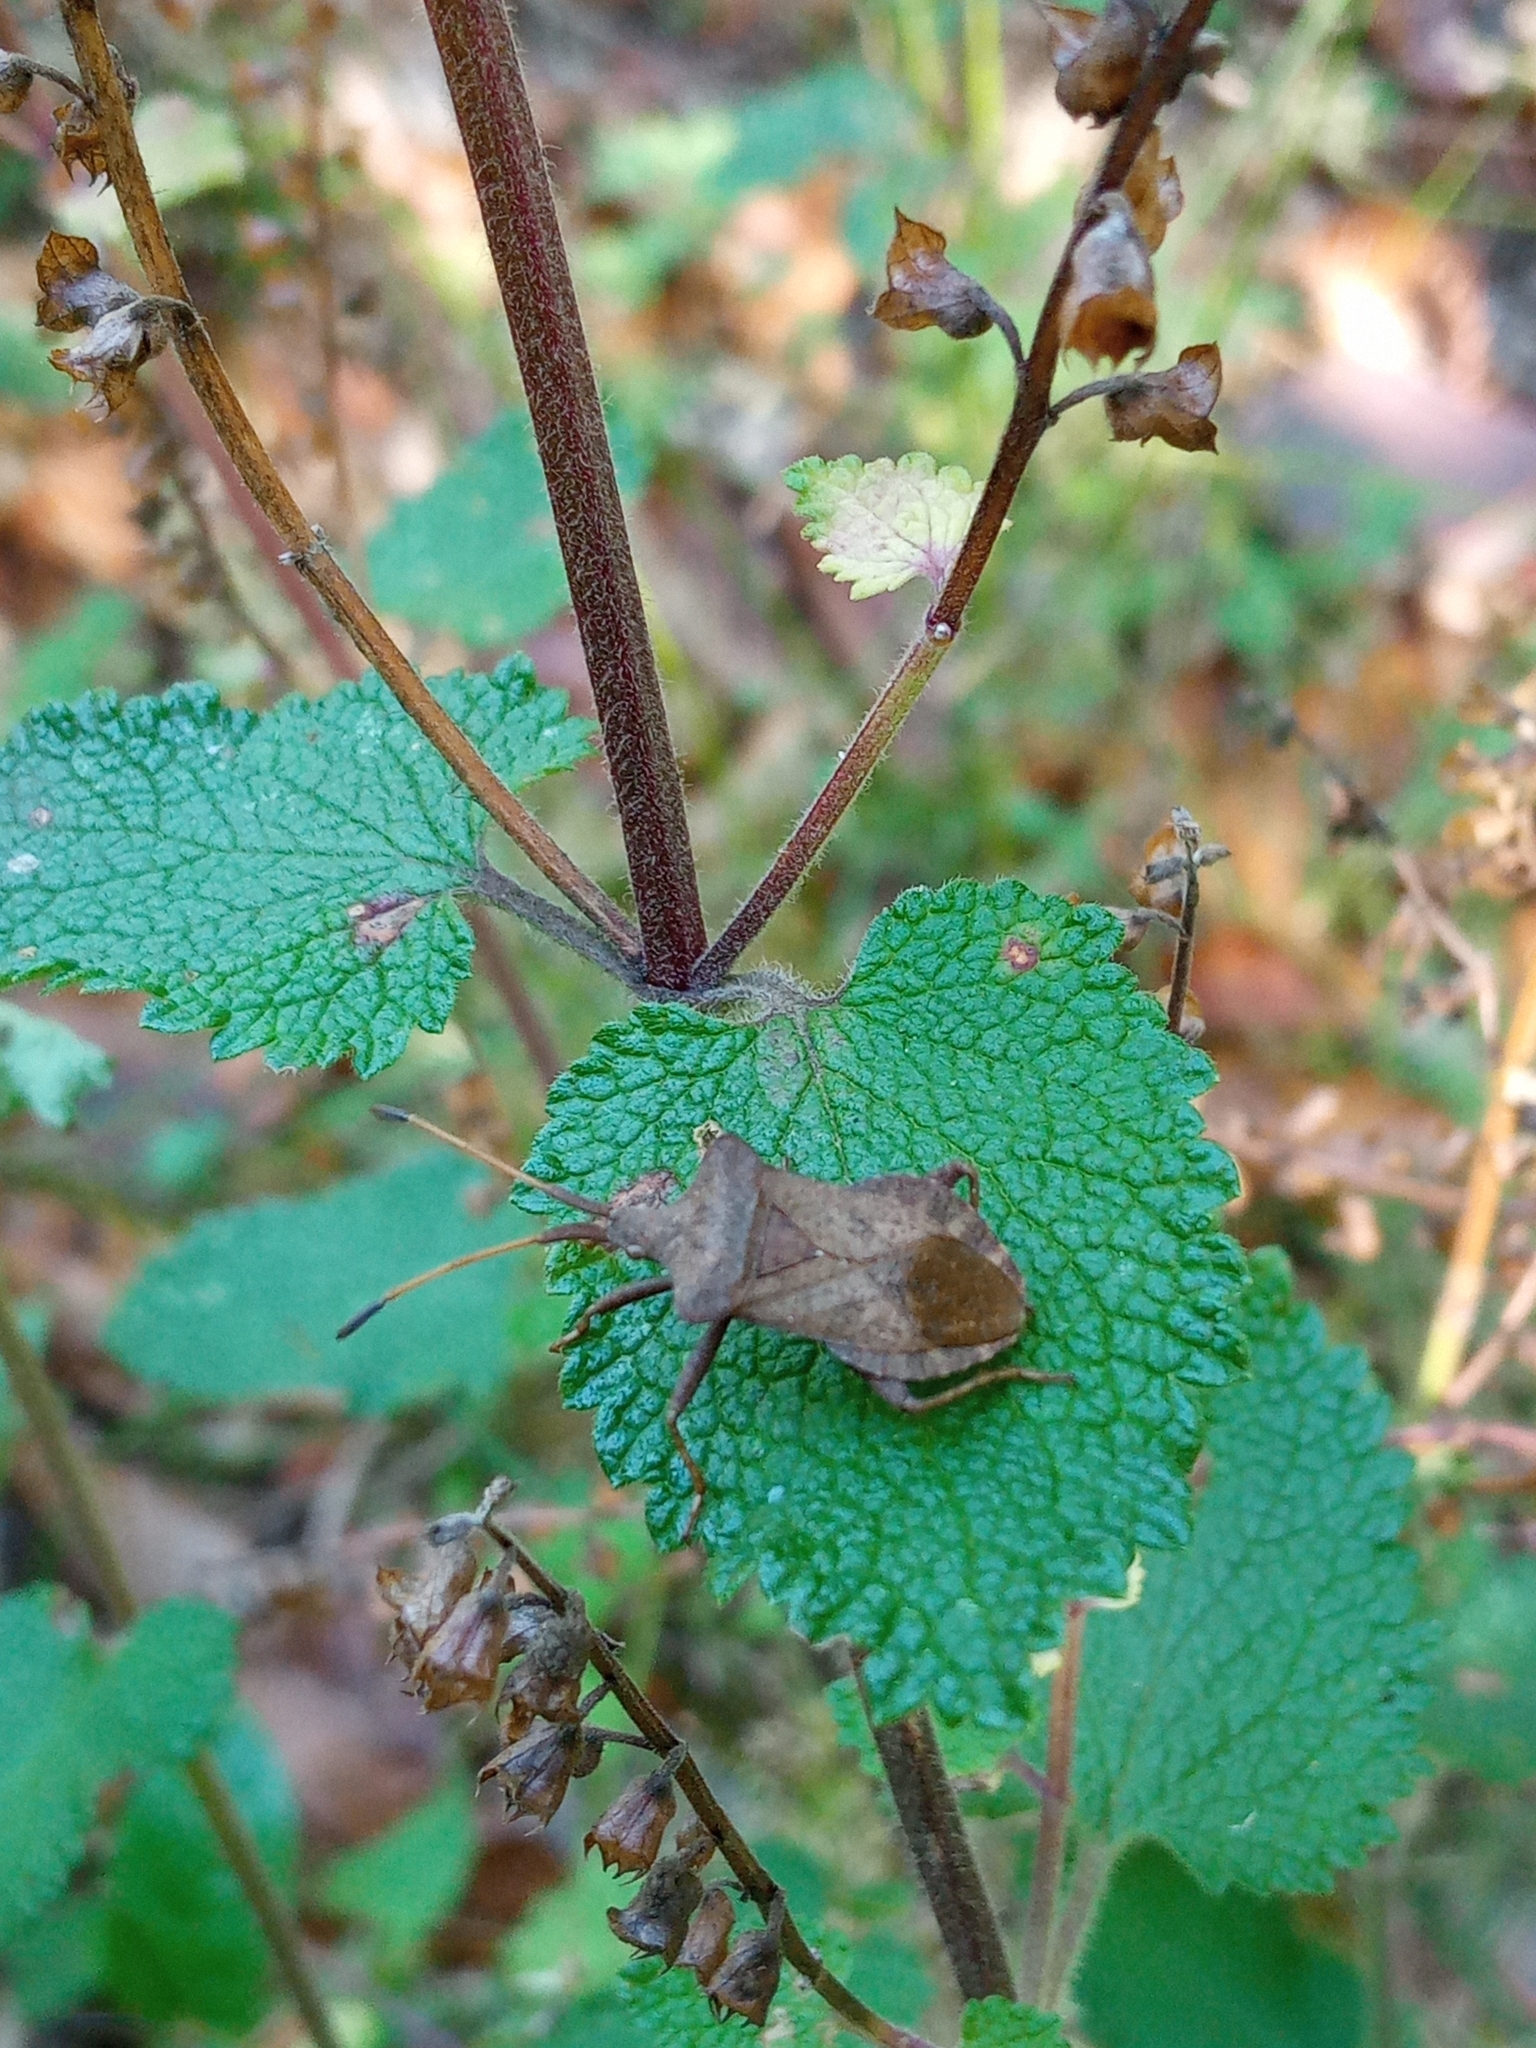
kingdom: Animalia
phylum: Arthropoda
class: Insecta
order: Hemiptera
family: Coreidae
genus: Coreus
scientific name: Coreus marginatus
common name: Dock bug
